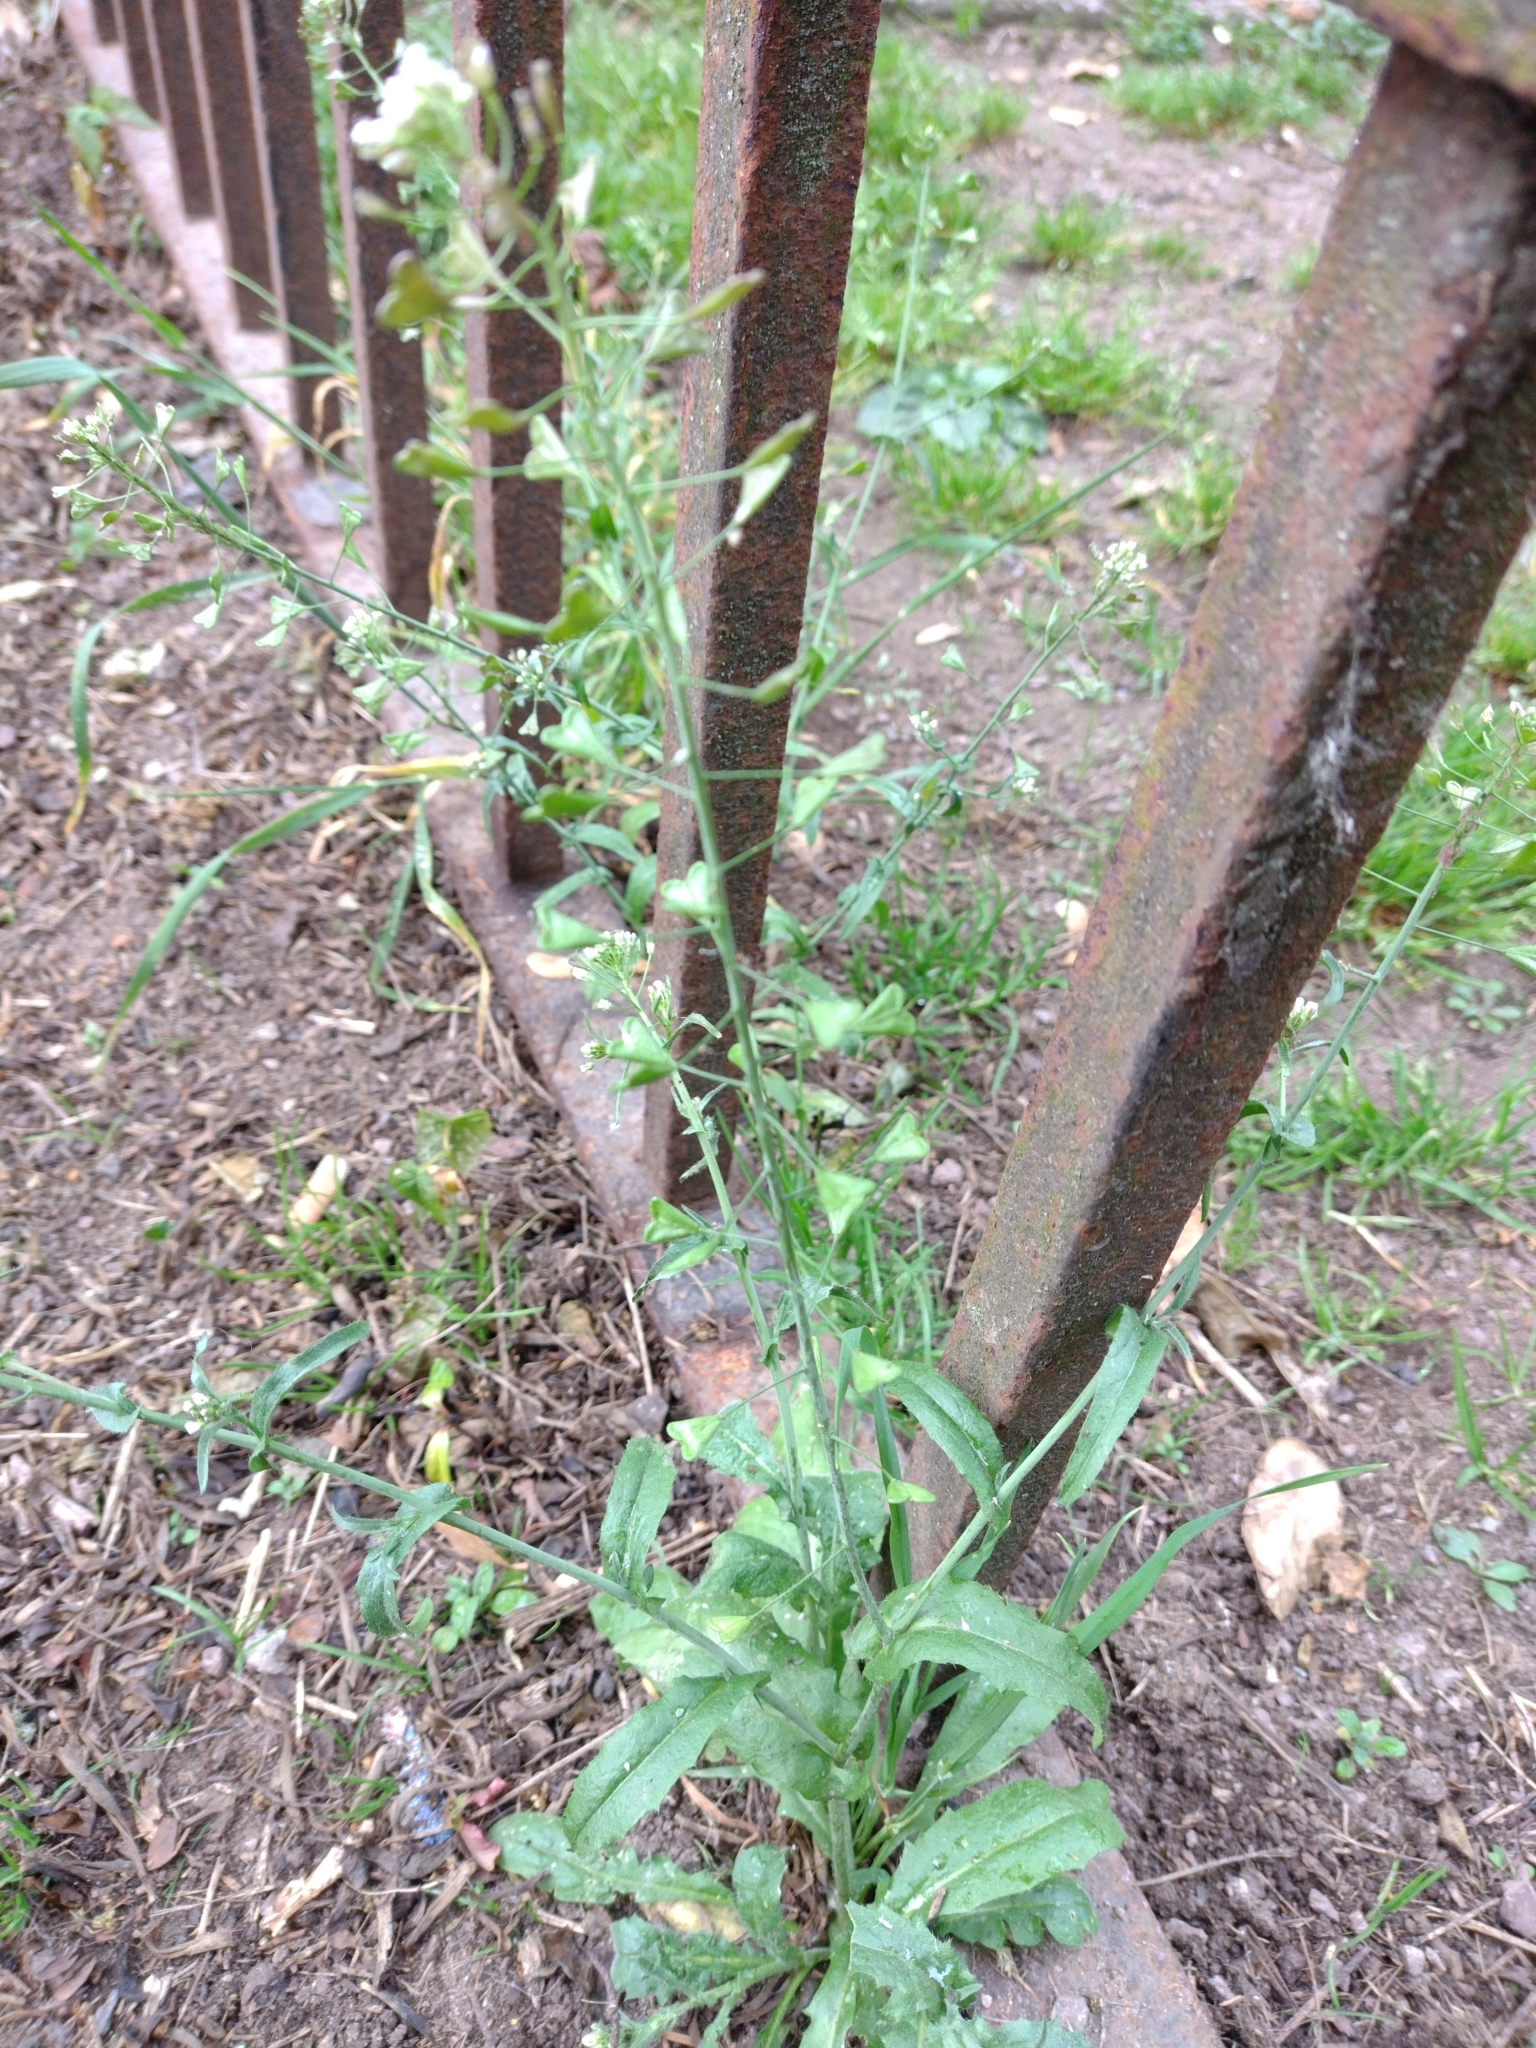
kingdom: Plantae
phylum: Tracheophyta
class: Magnoliopsida
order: Brassicales
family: Brassicaceae
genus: Capsella
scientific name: Capsella bursa-pastoris
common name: Shepherd's purse
